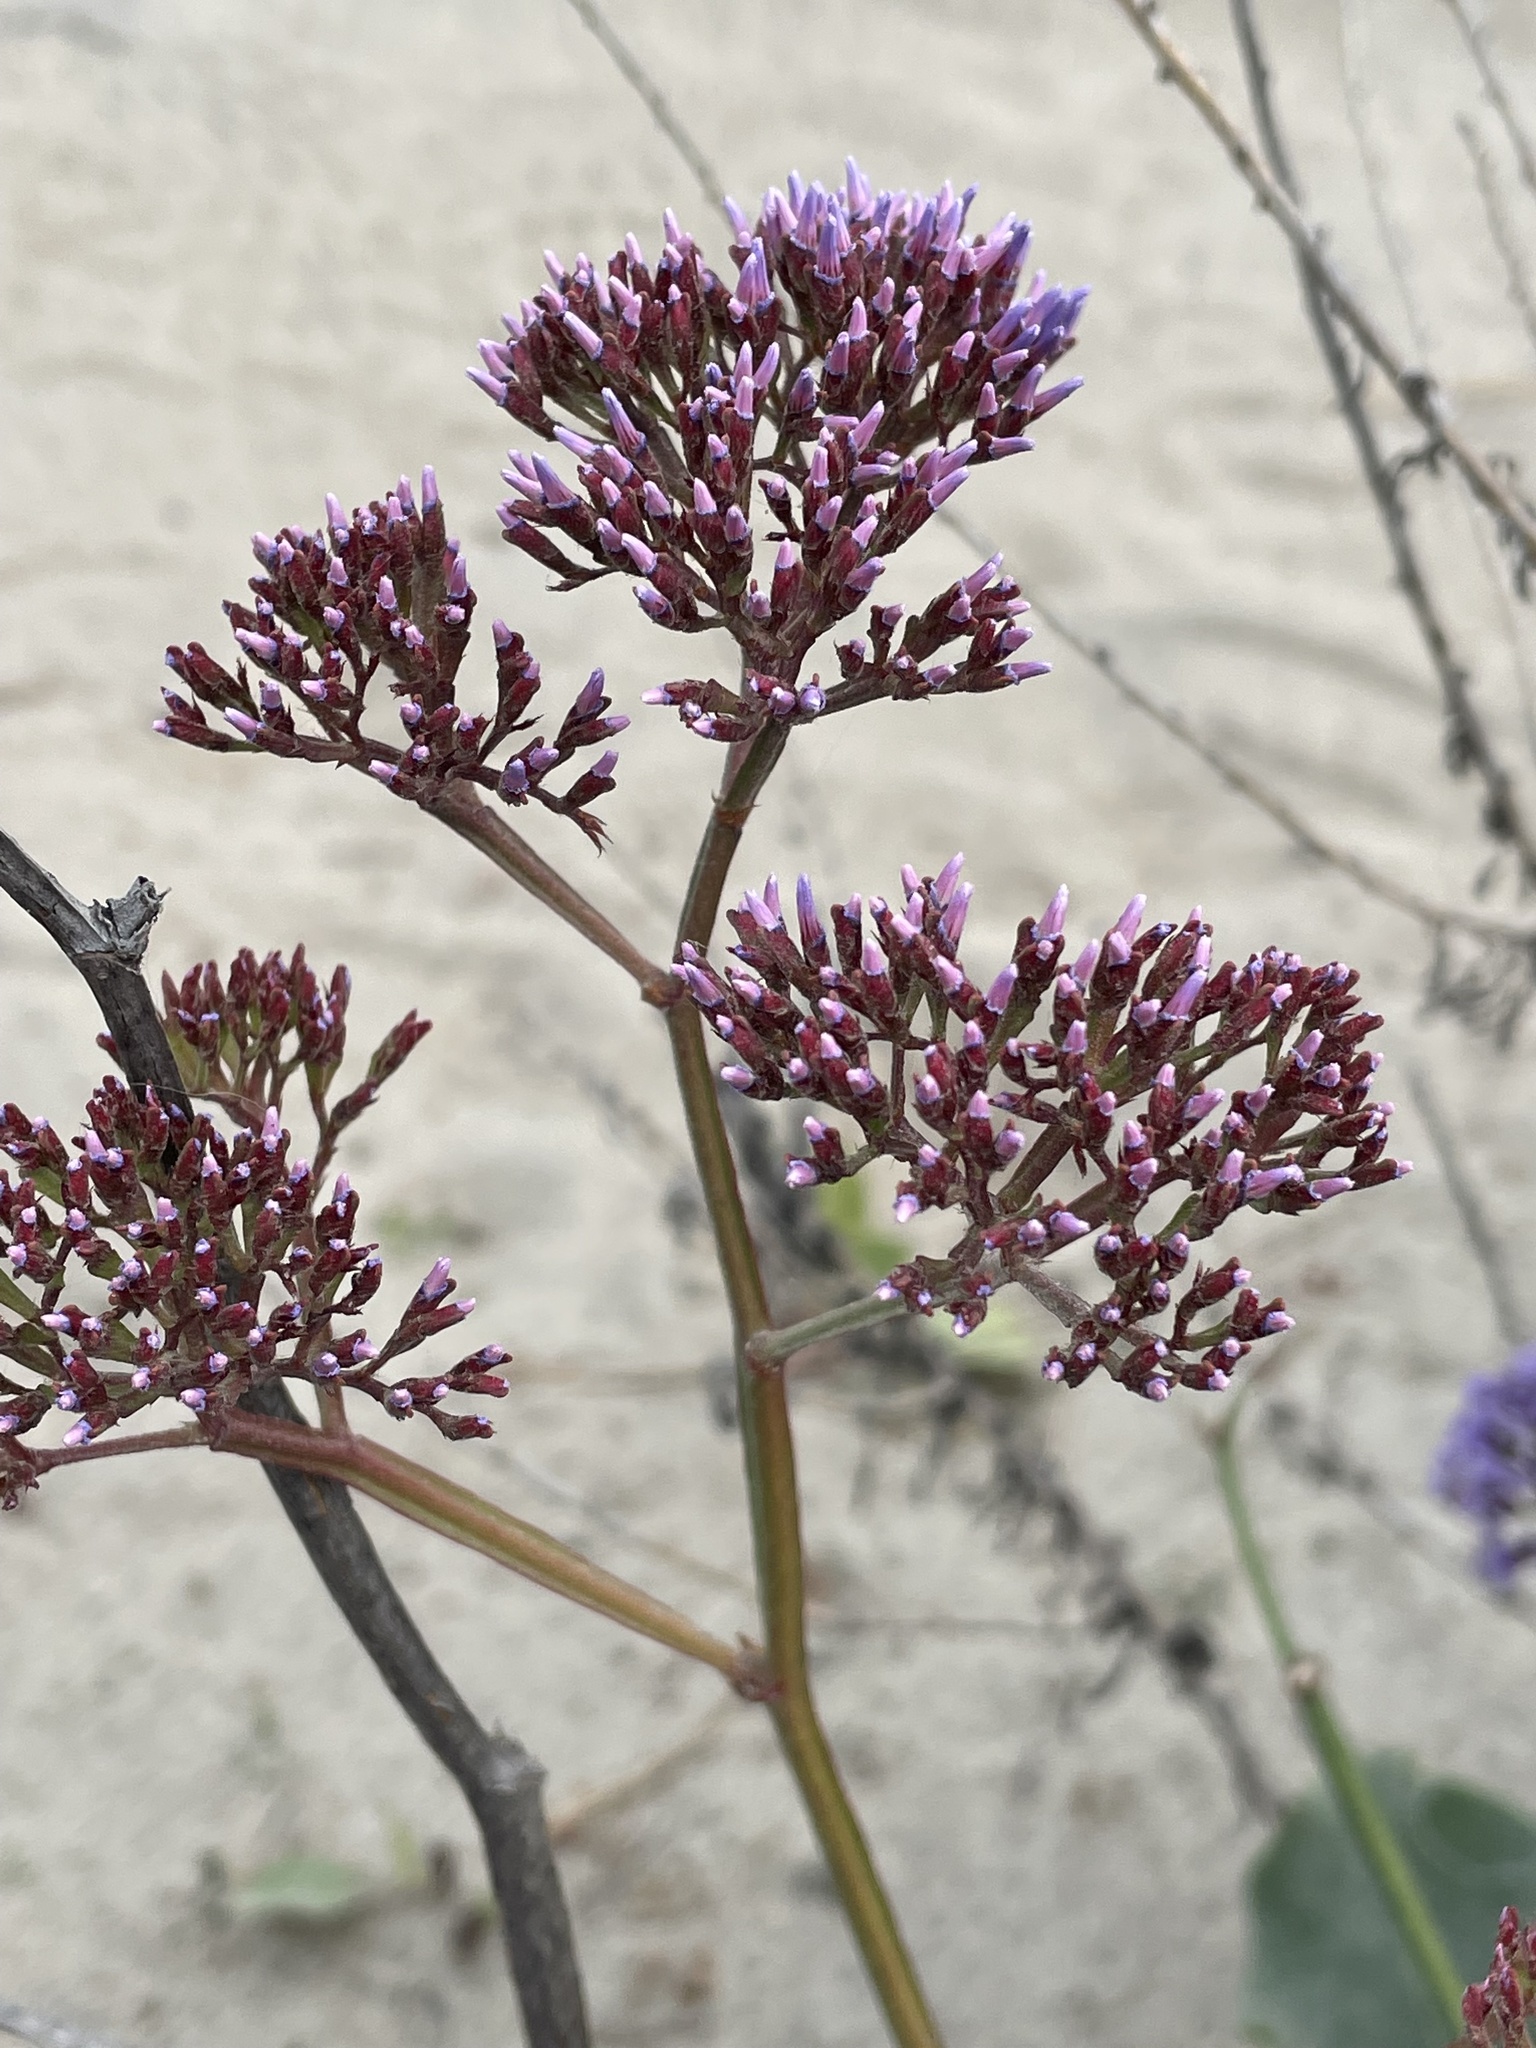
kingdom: Plantae
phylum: Tracheophyta
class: Magnoliopsida
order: Caryophyllales
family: Plumbaginaceae
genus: Limonium
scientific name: Limonium perezii
